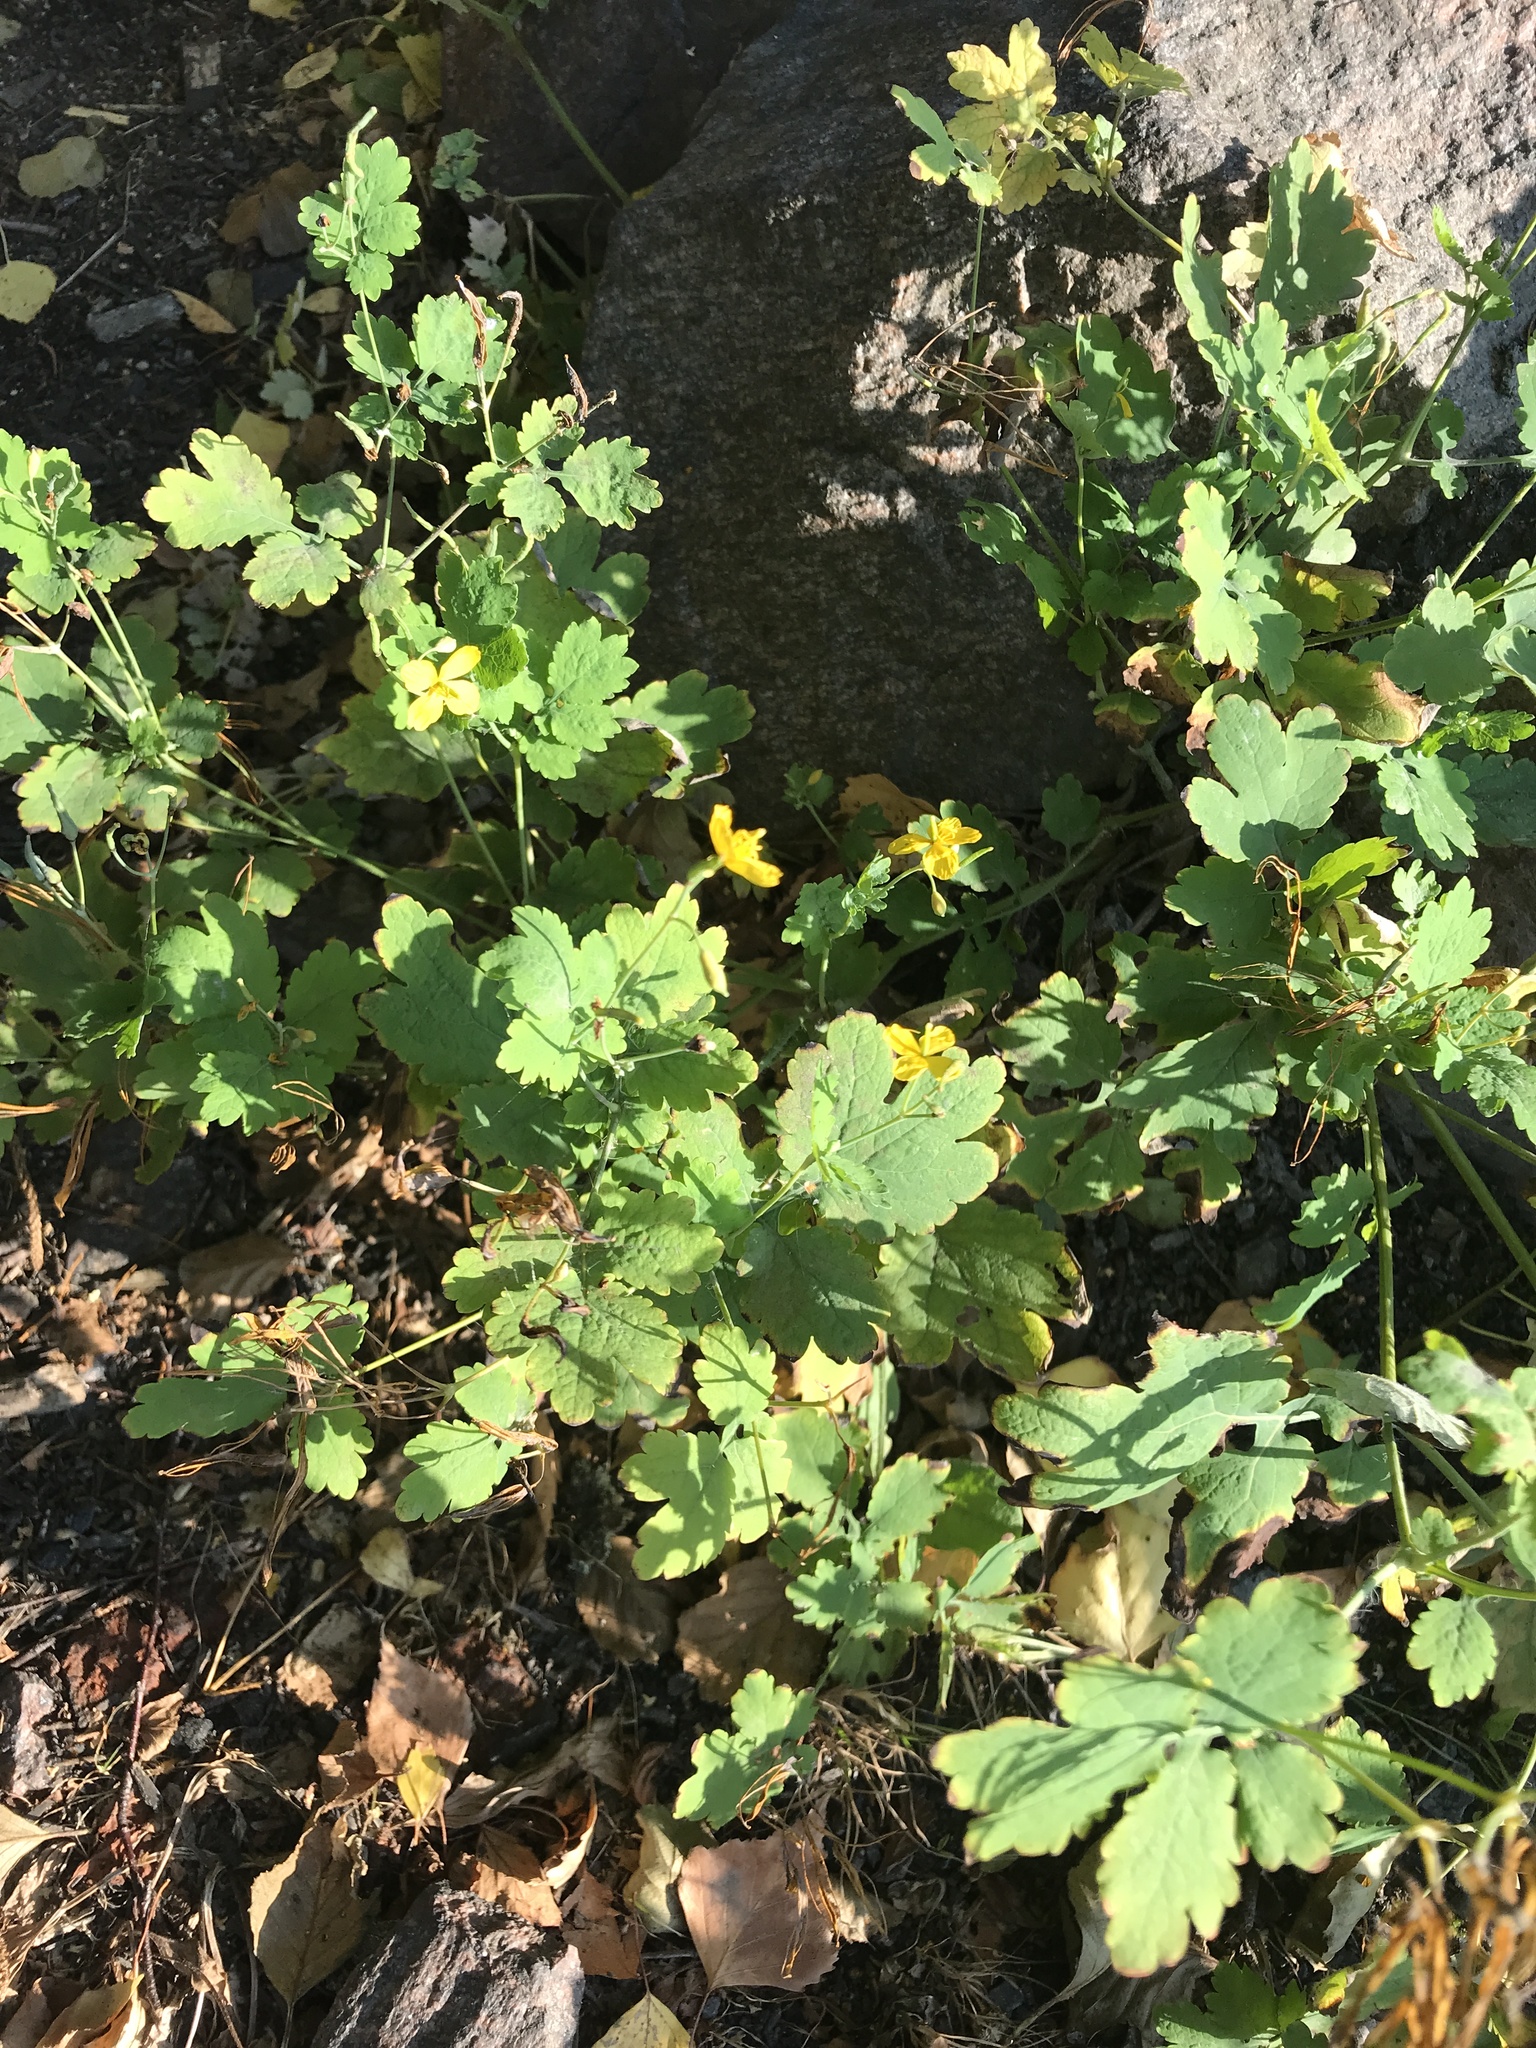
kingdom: Plantae
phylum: Tracheophyta
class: Magnoliopsida
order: Ranunculales
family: Papaveraceae
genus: Chelidonium
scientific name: Chelidonium majus
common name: Greater celandine
